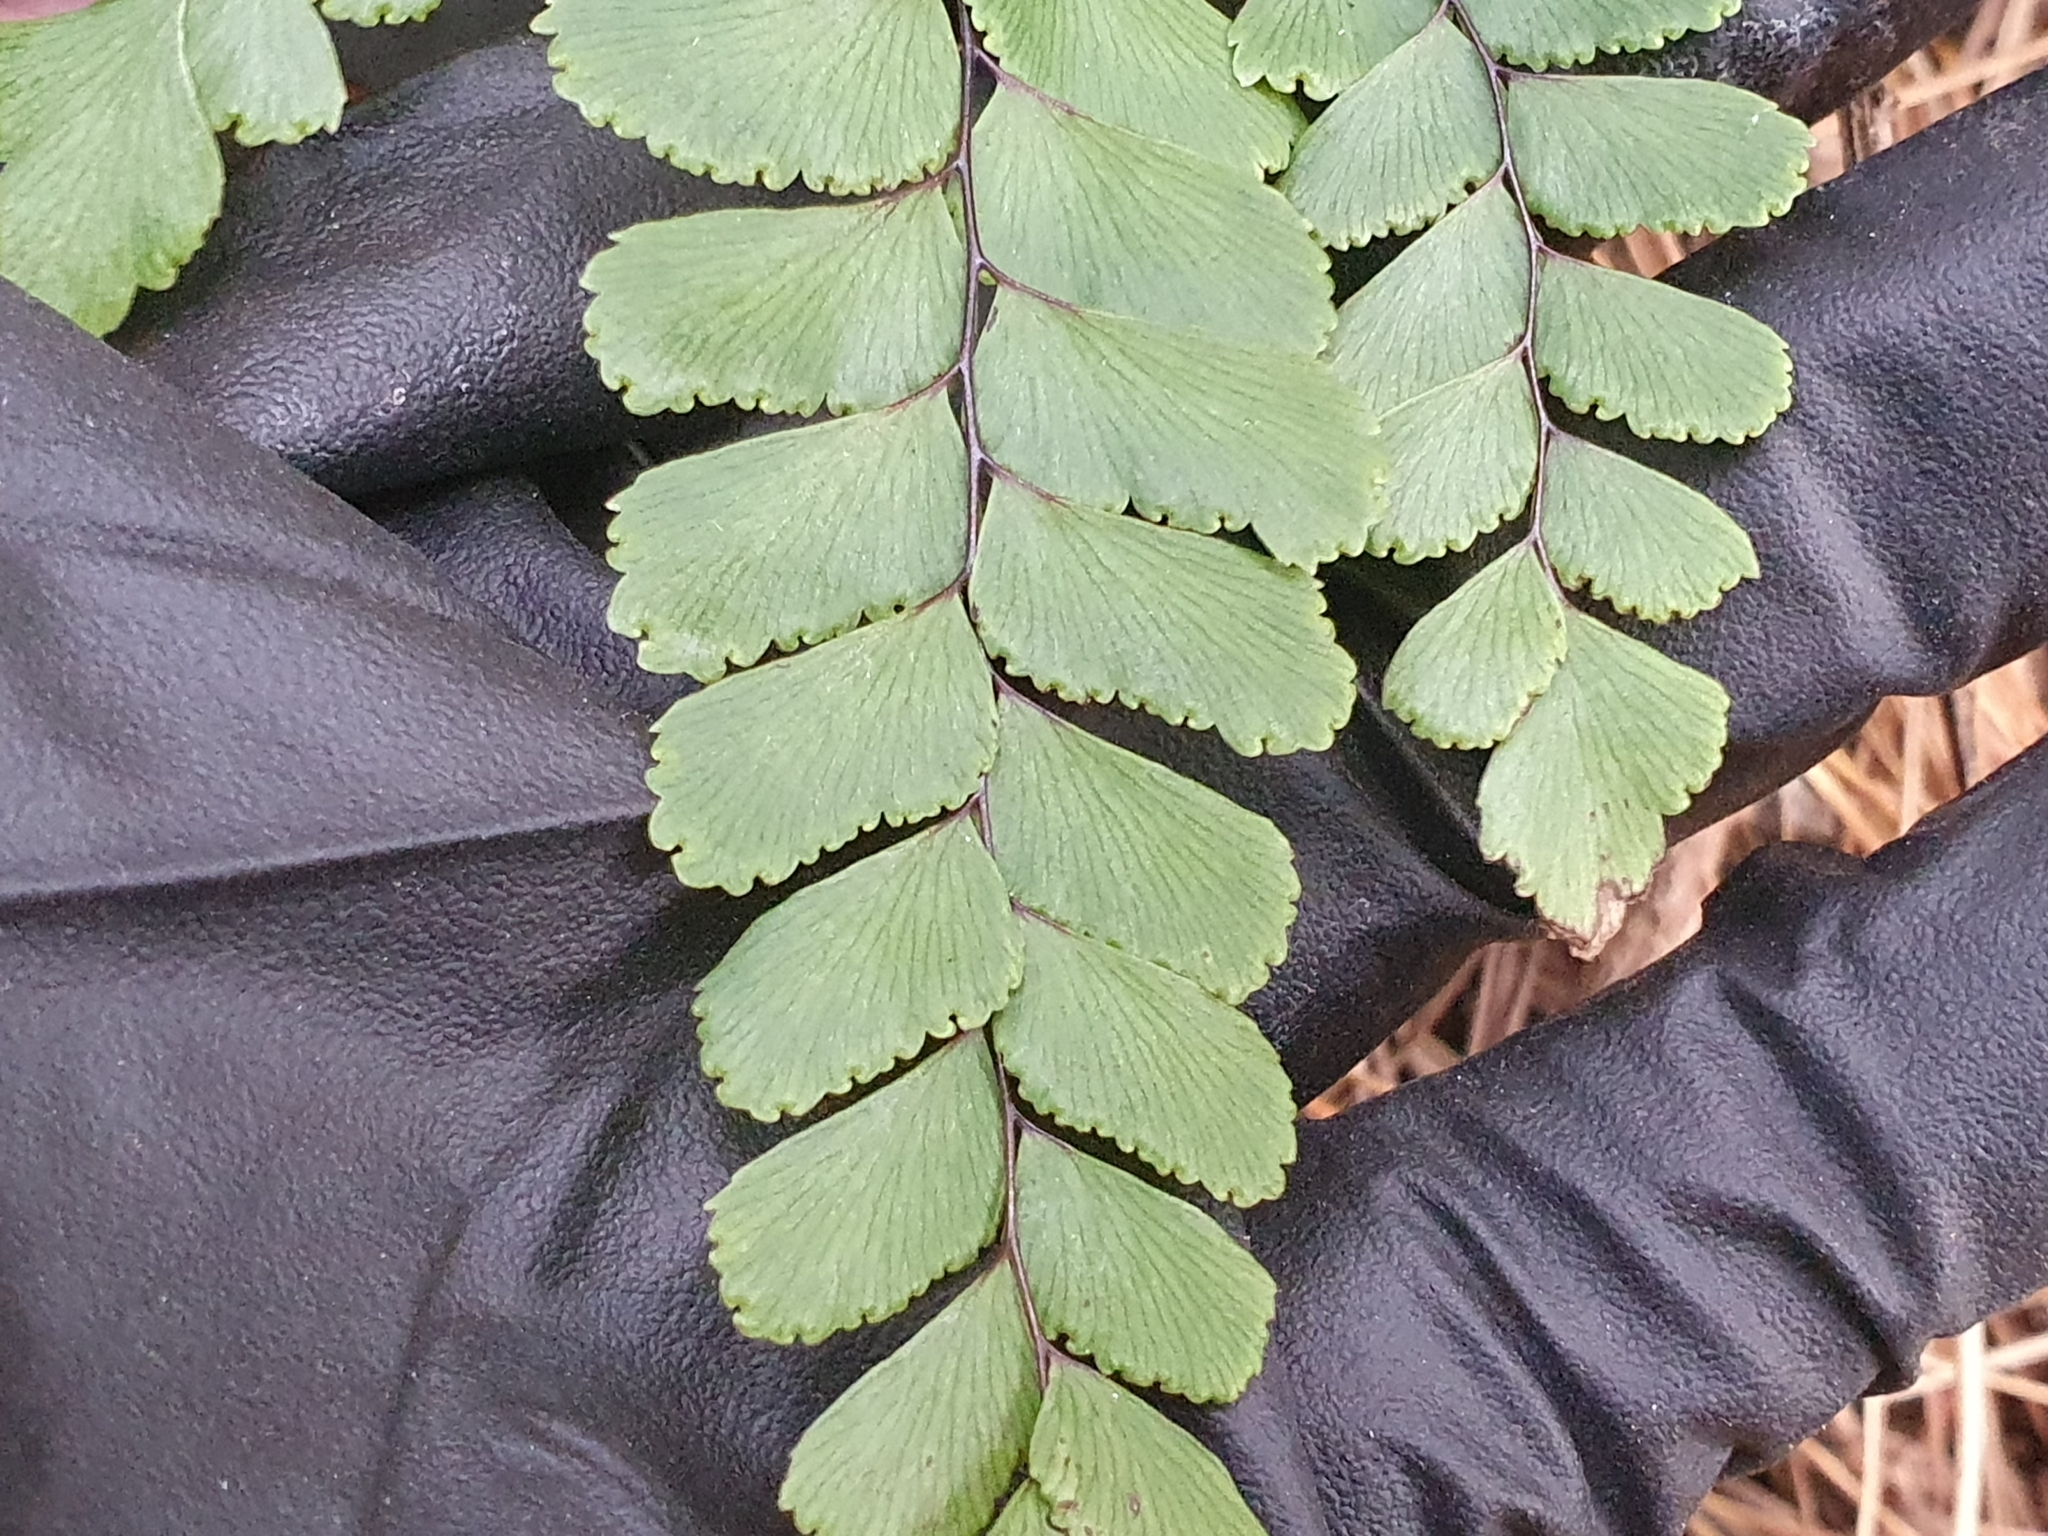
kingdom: Plantae
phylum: Tracheophyta
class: Polypodiopsida
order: Polypodiales
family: Pteridaceae
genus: Adiantum
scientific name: Adiantum cunninghamii
